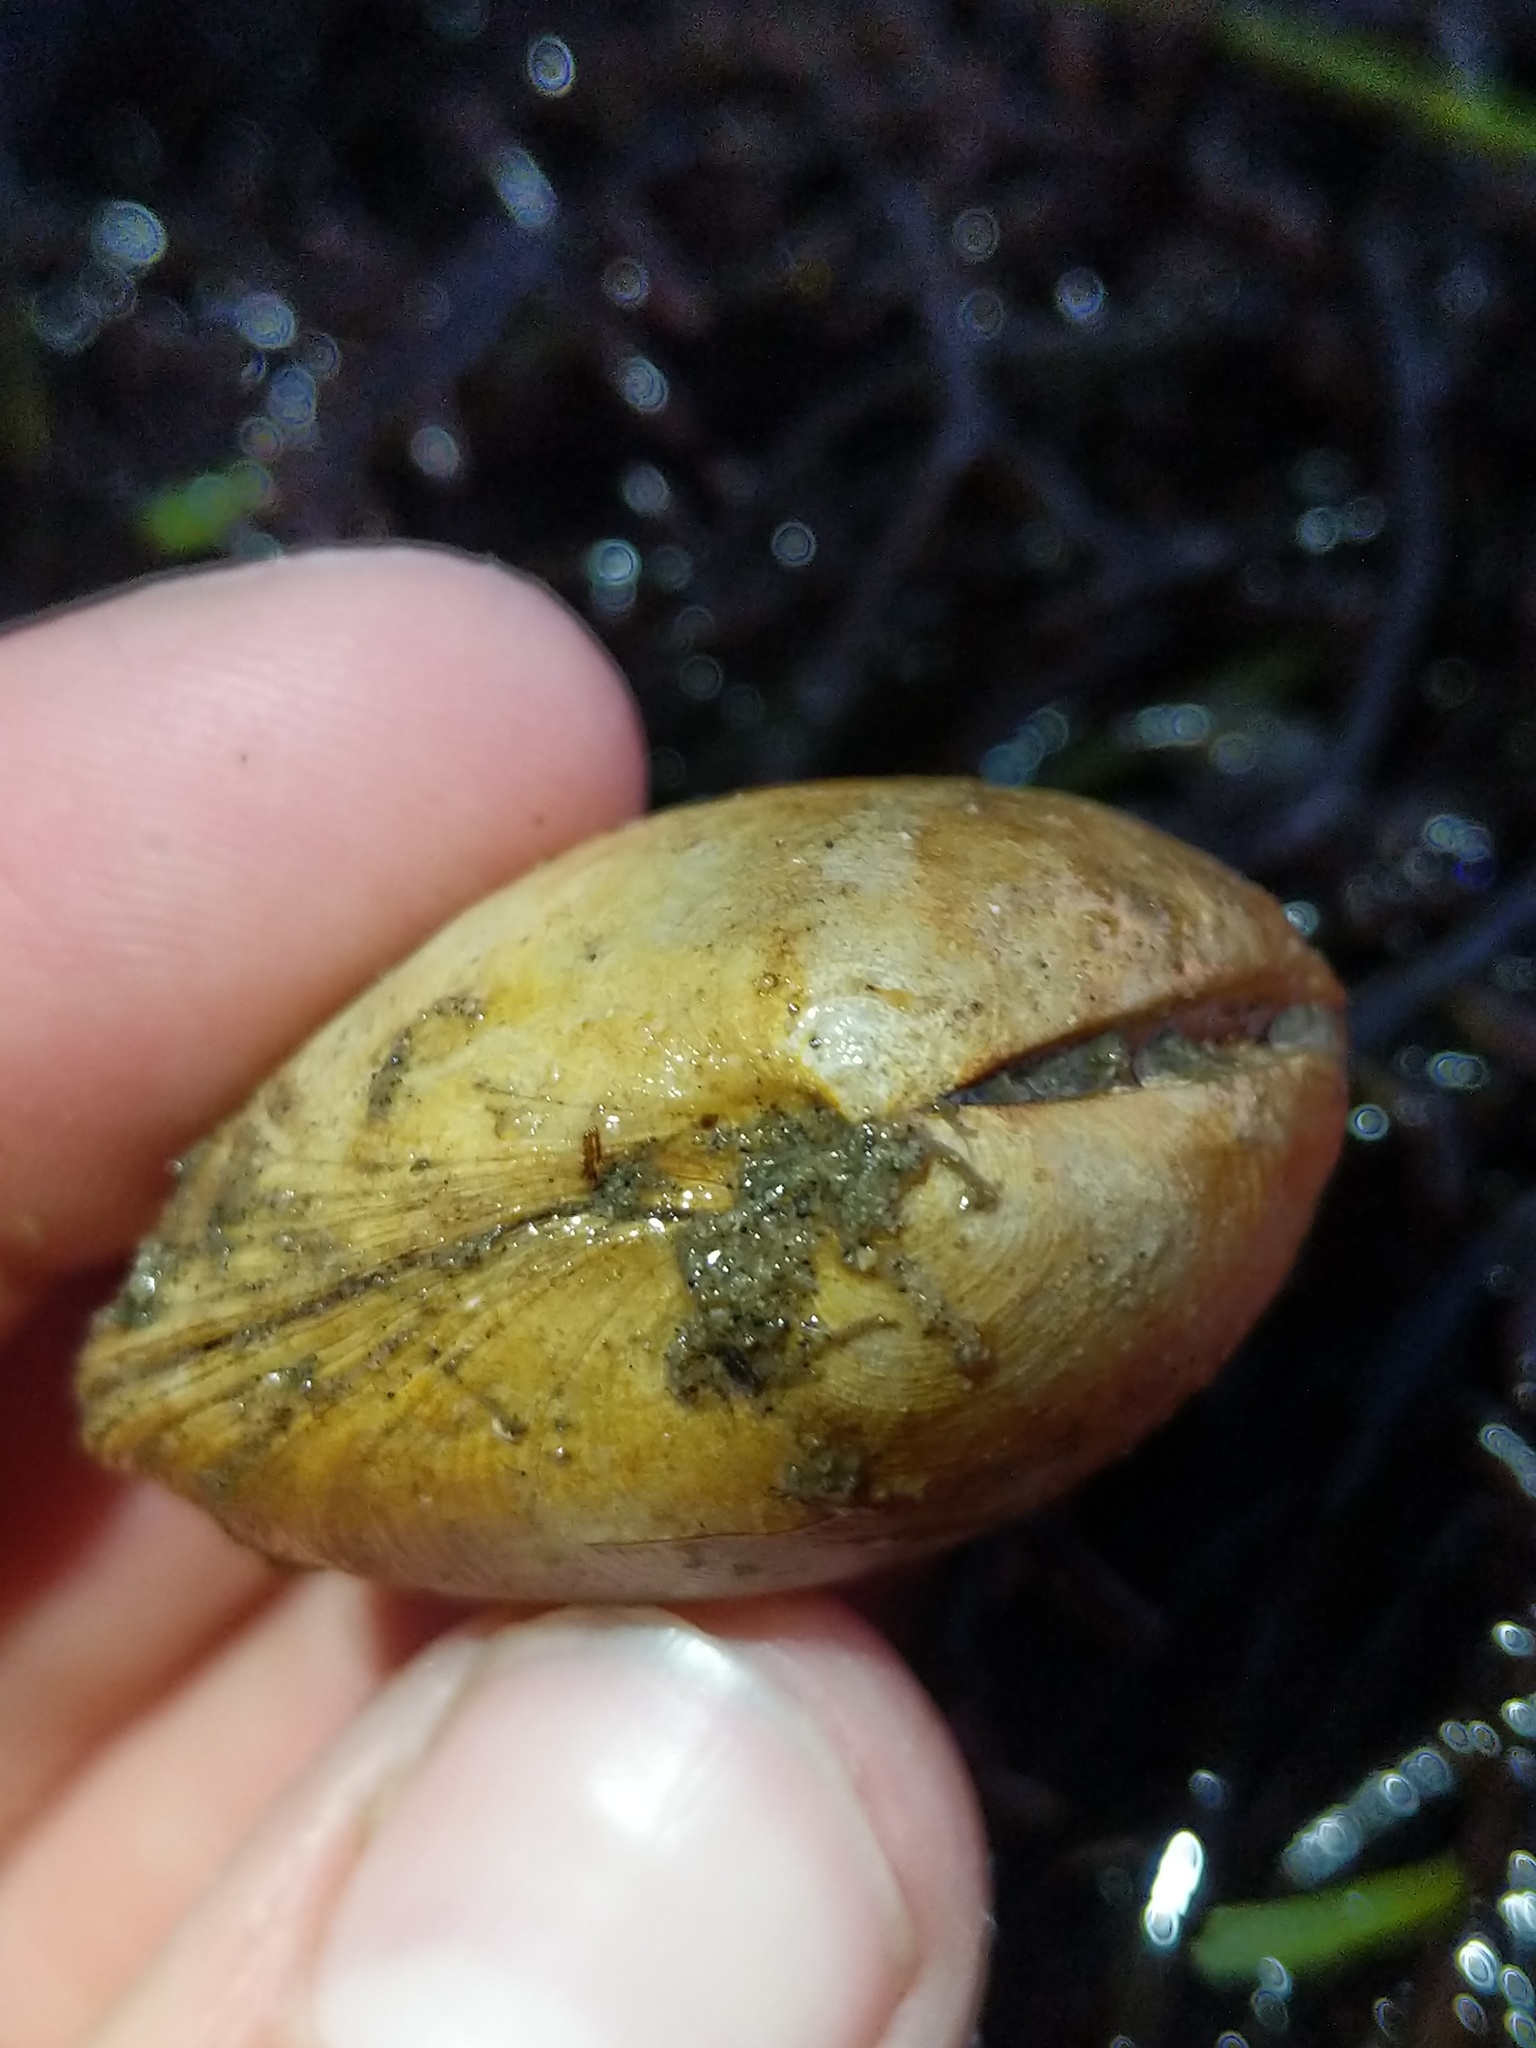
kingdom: Animalia
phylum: Mollusca
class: Bivalvia
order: Lucinida
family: Lucinidae
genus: Epilucina
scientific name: Epilucina californica
